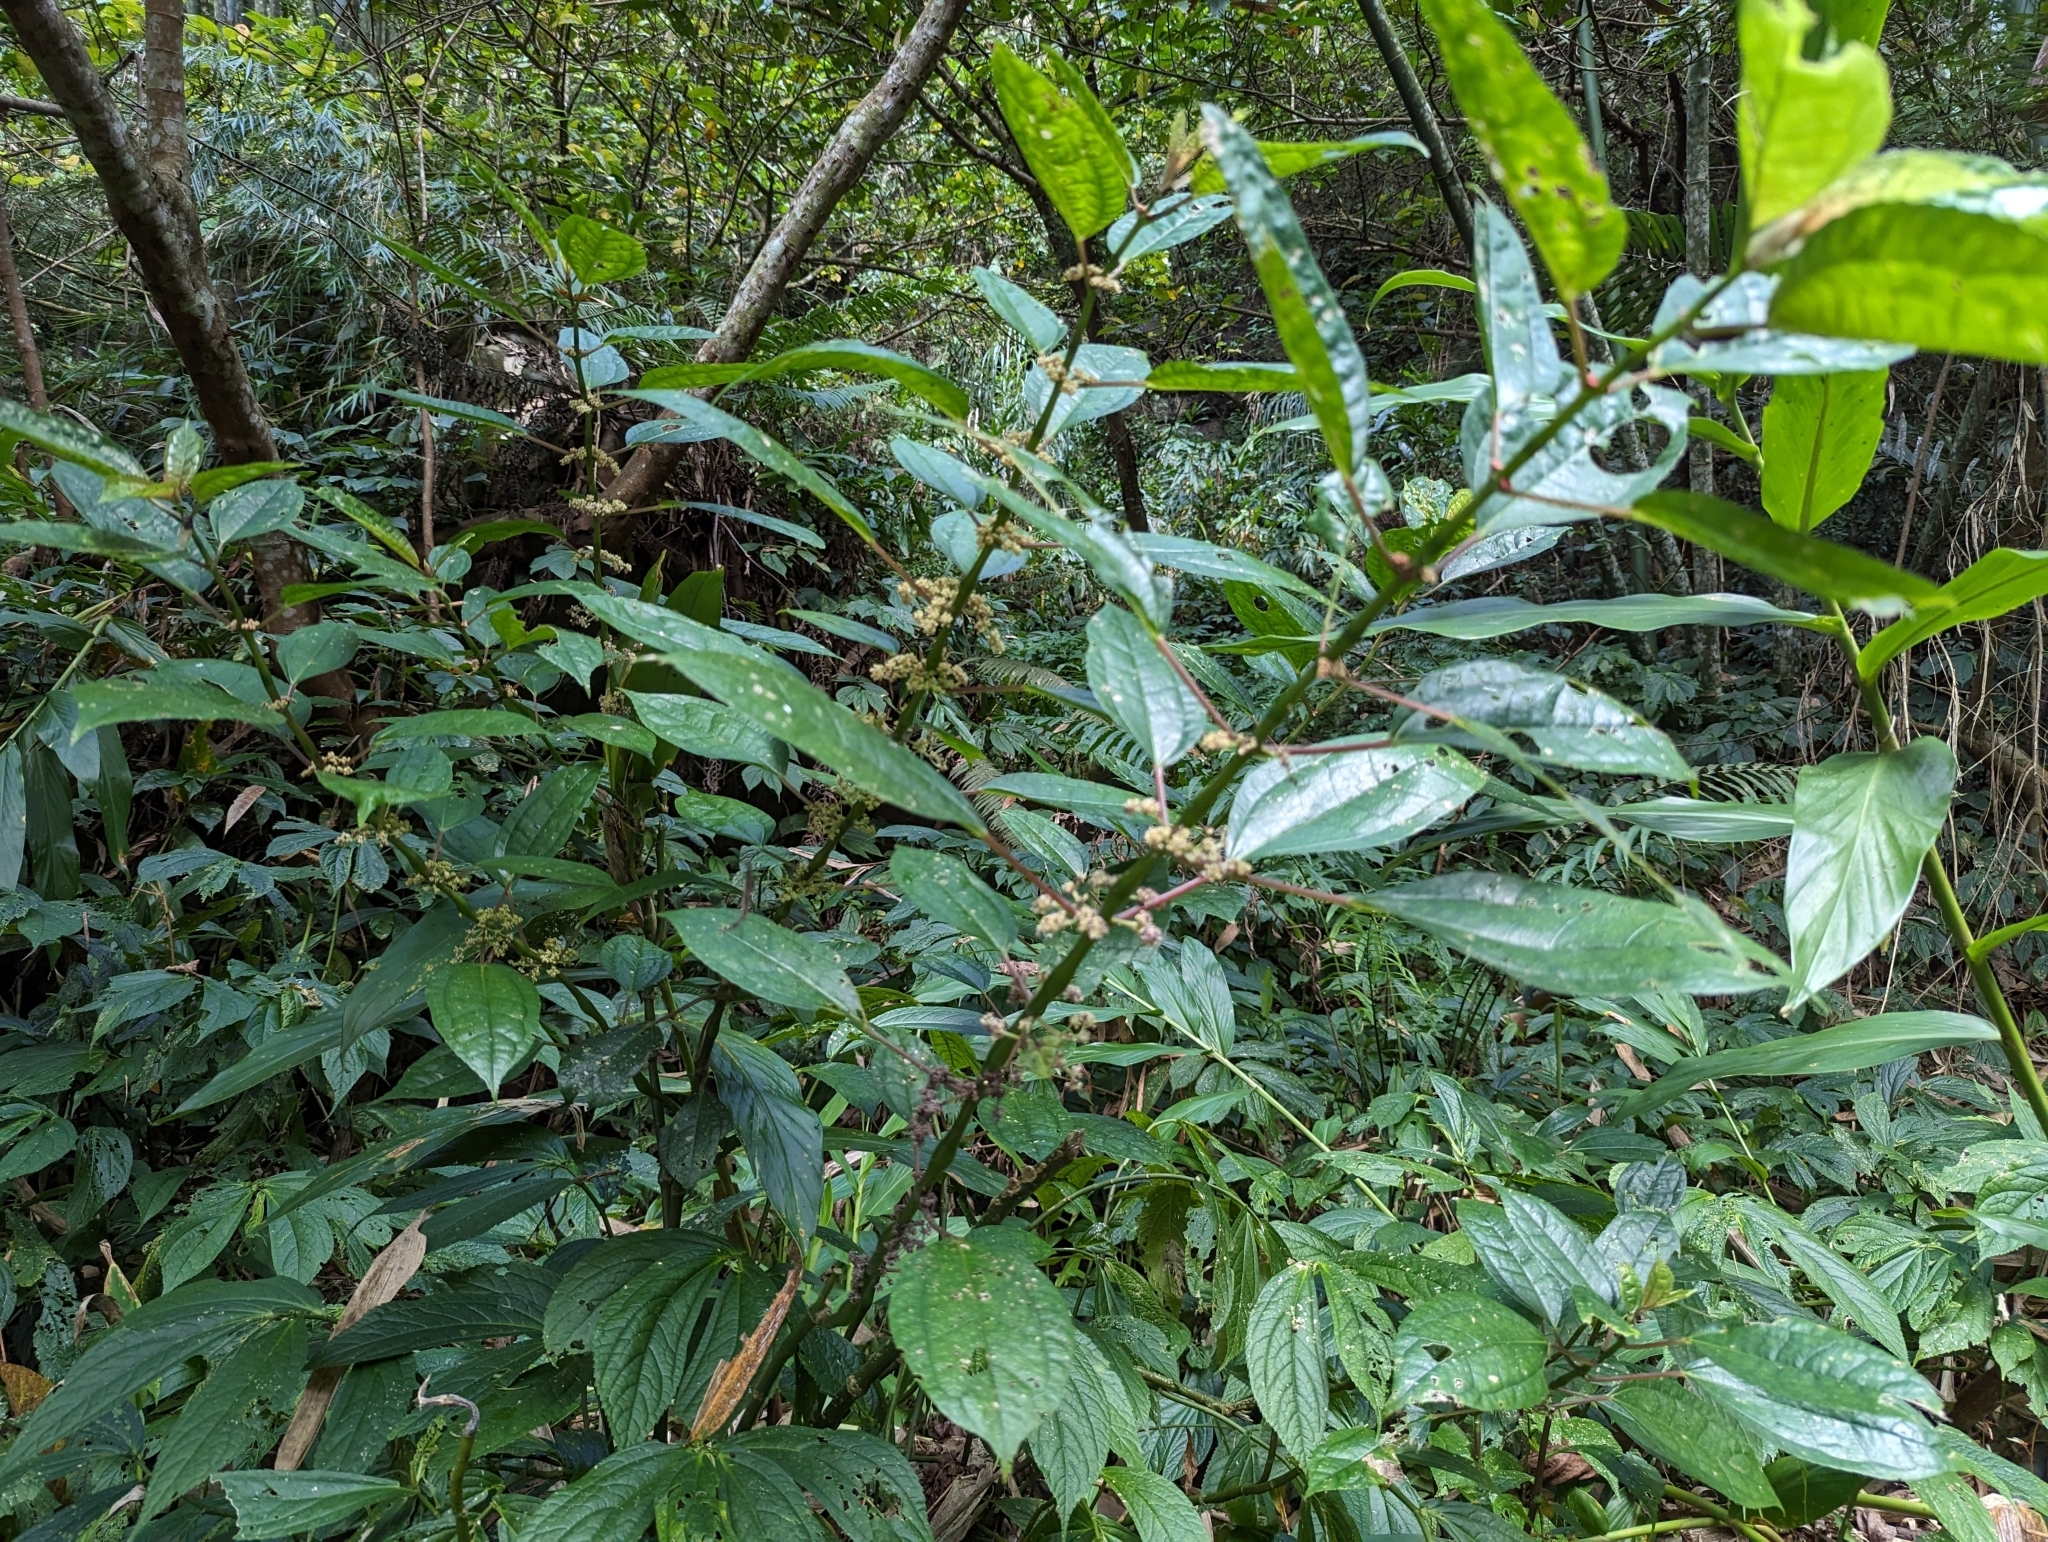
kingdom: Plantae
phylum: Tracheophyta
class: Magnoliopsida
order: Rosales
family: Urticaceae
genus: Pilea
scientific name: Pilea funkikensis
